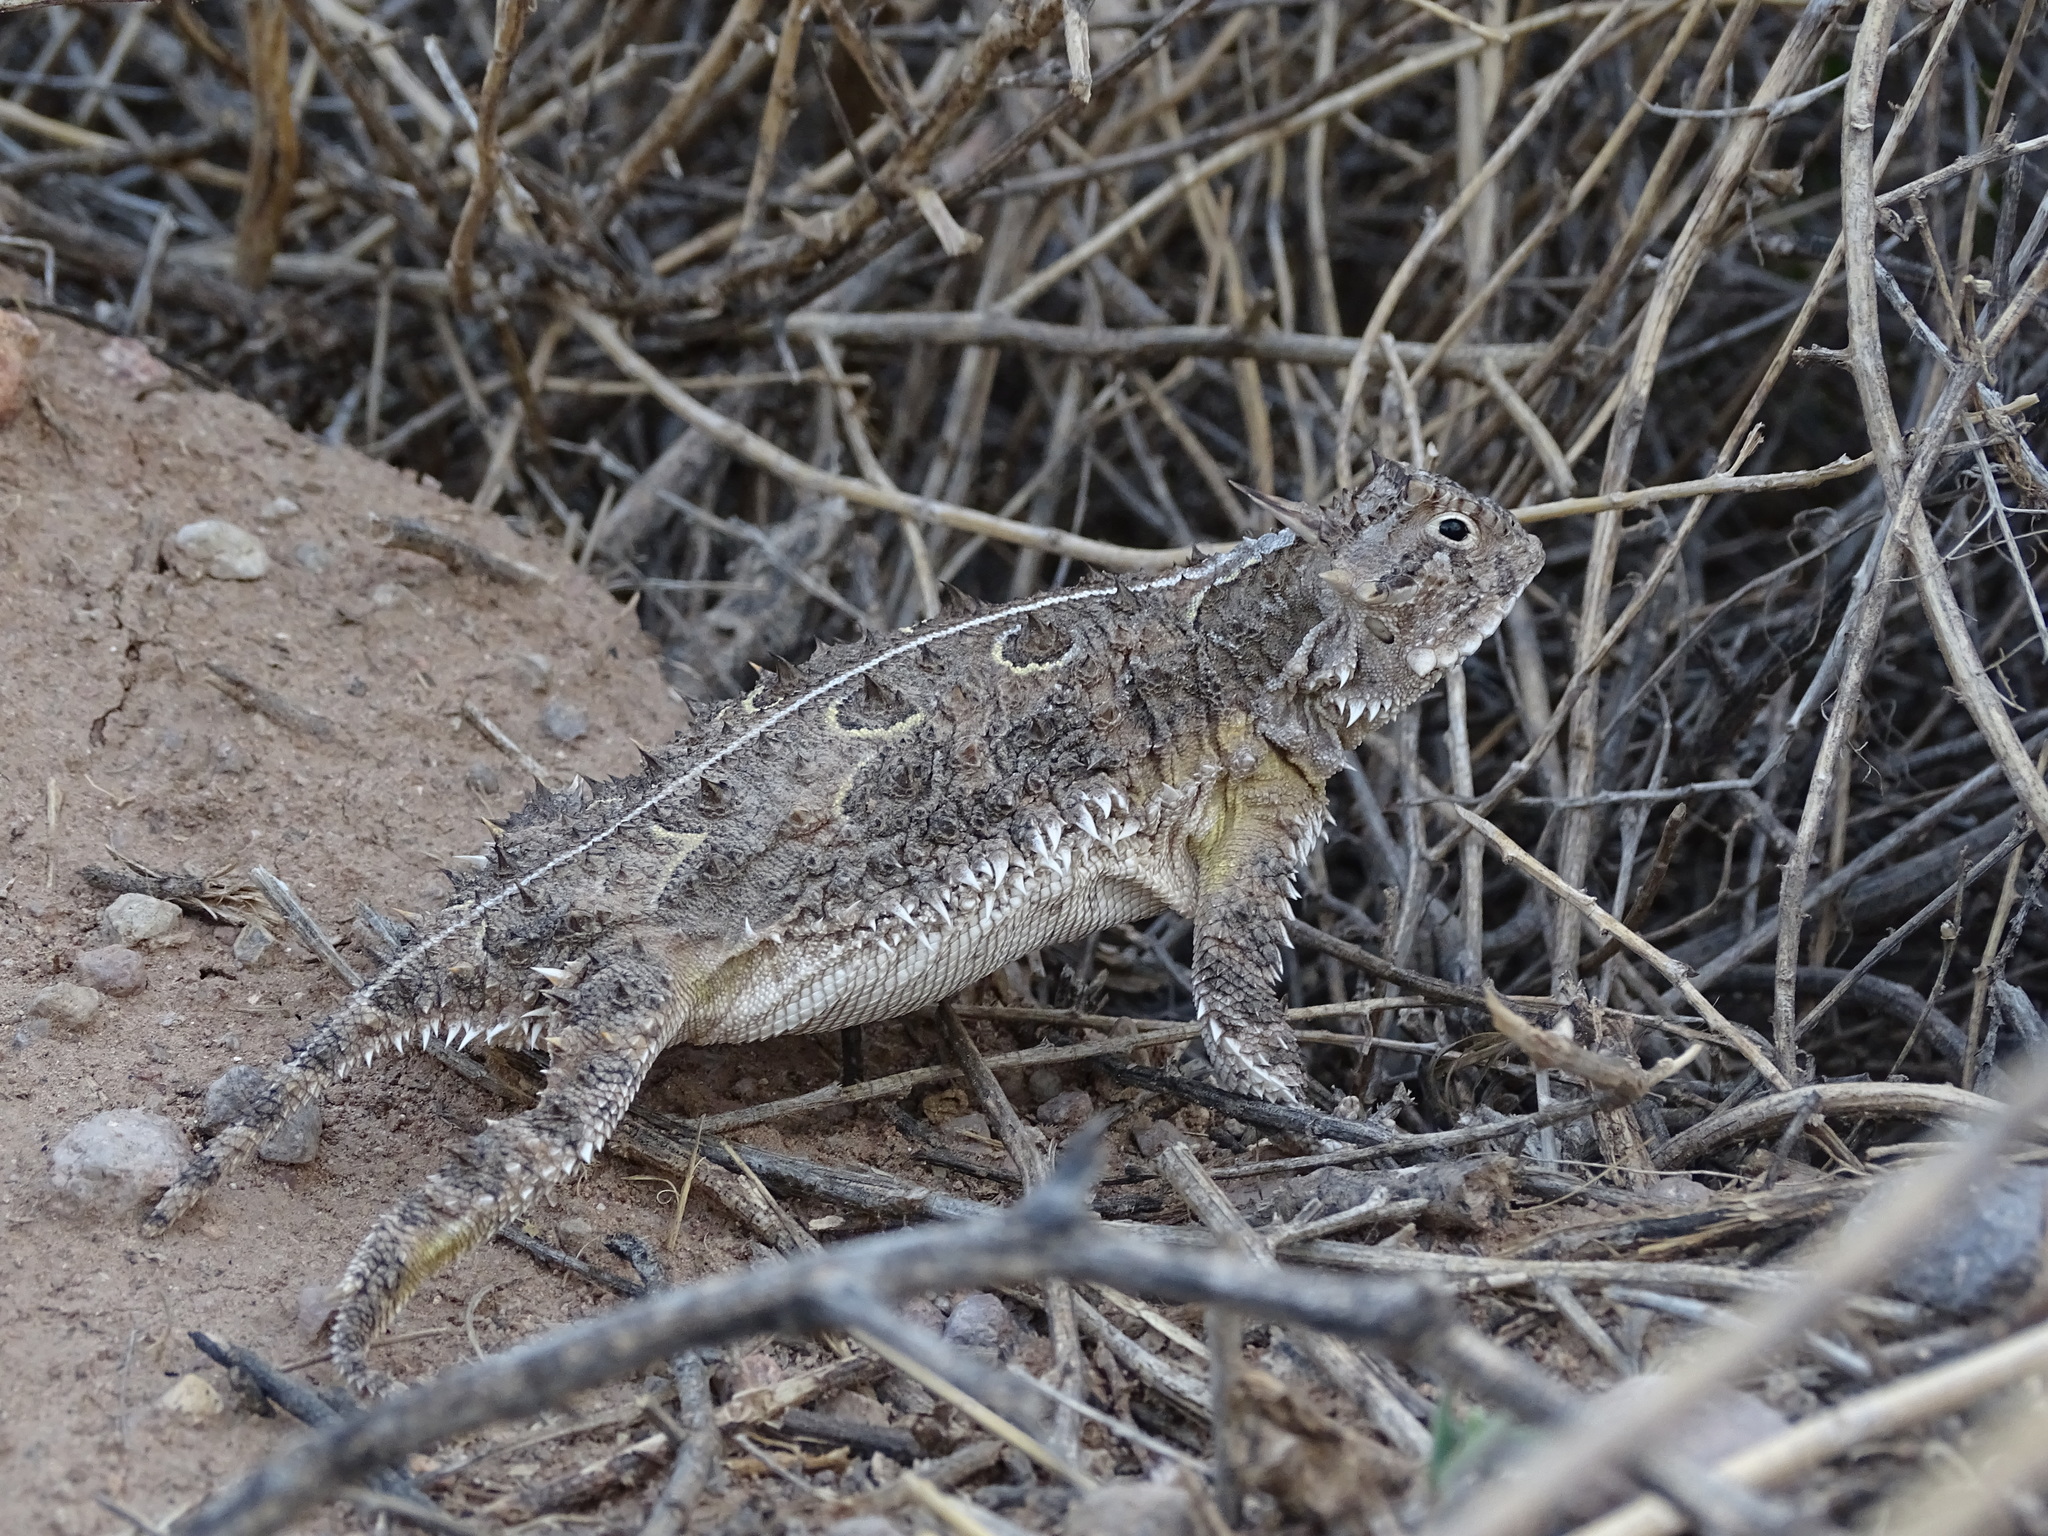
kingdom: Animalia
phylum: Chordata
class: Squamata
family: Phrynosomatidae
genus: Phrynosoma
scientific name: Phrynosoma cornutum
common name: Texas horned lizard
